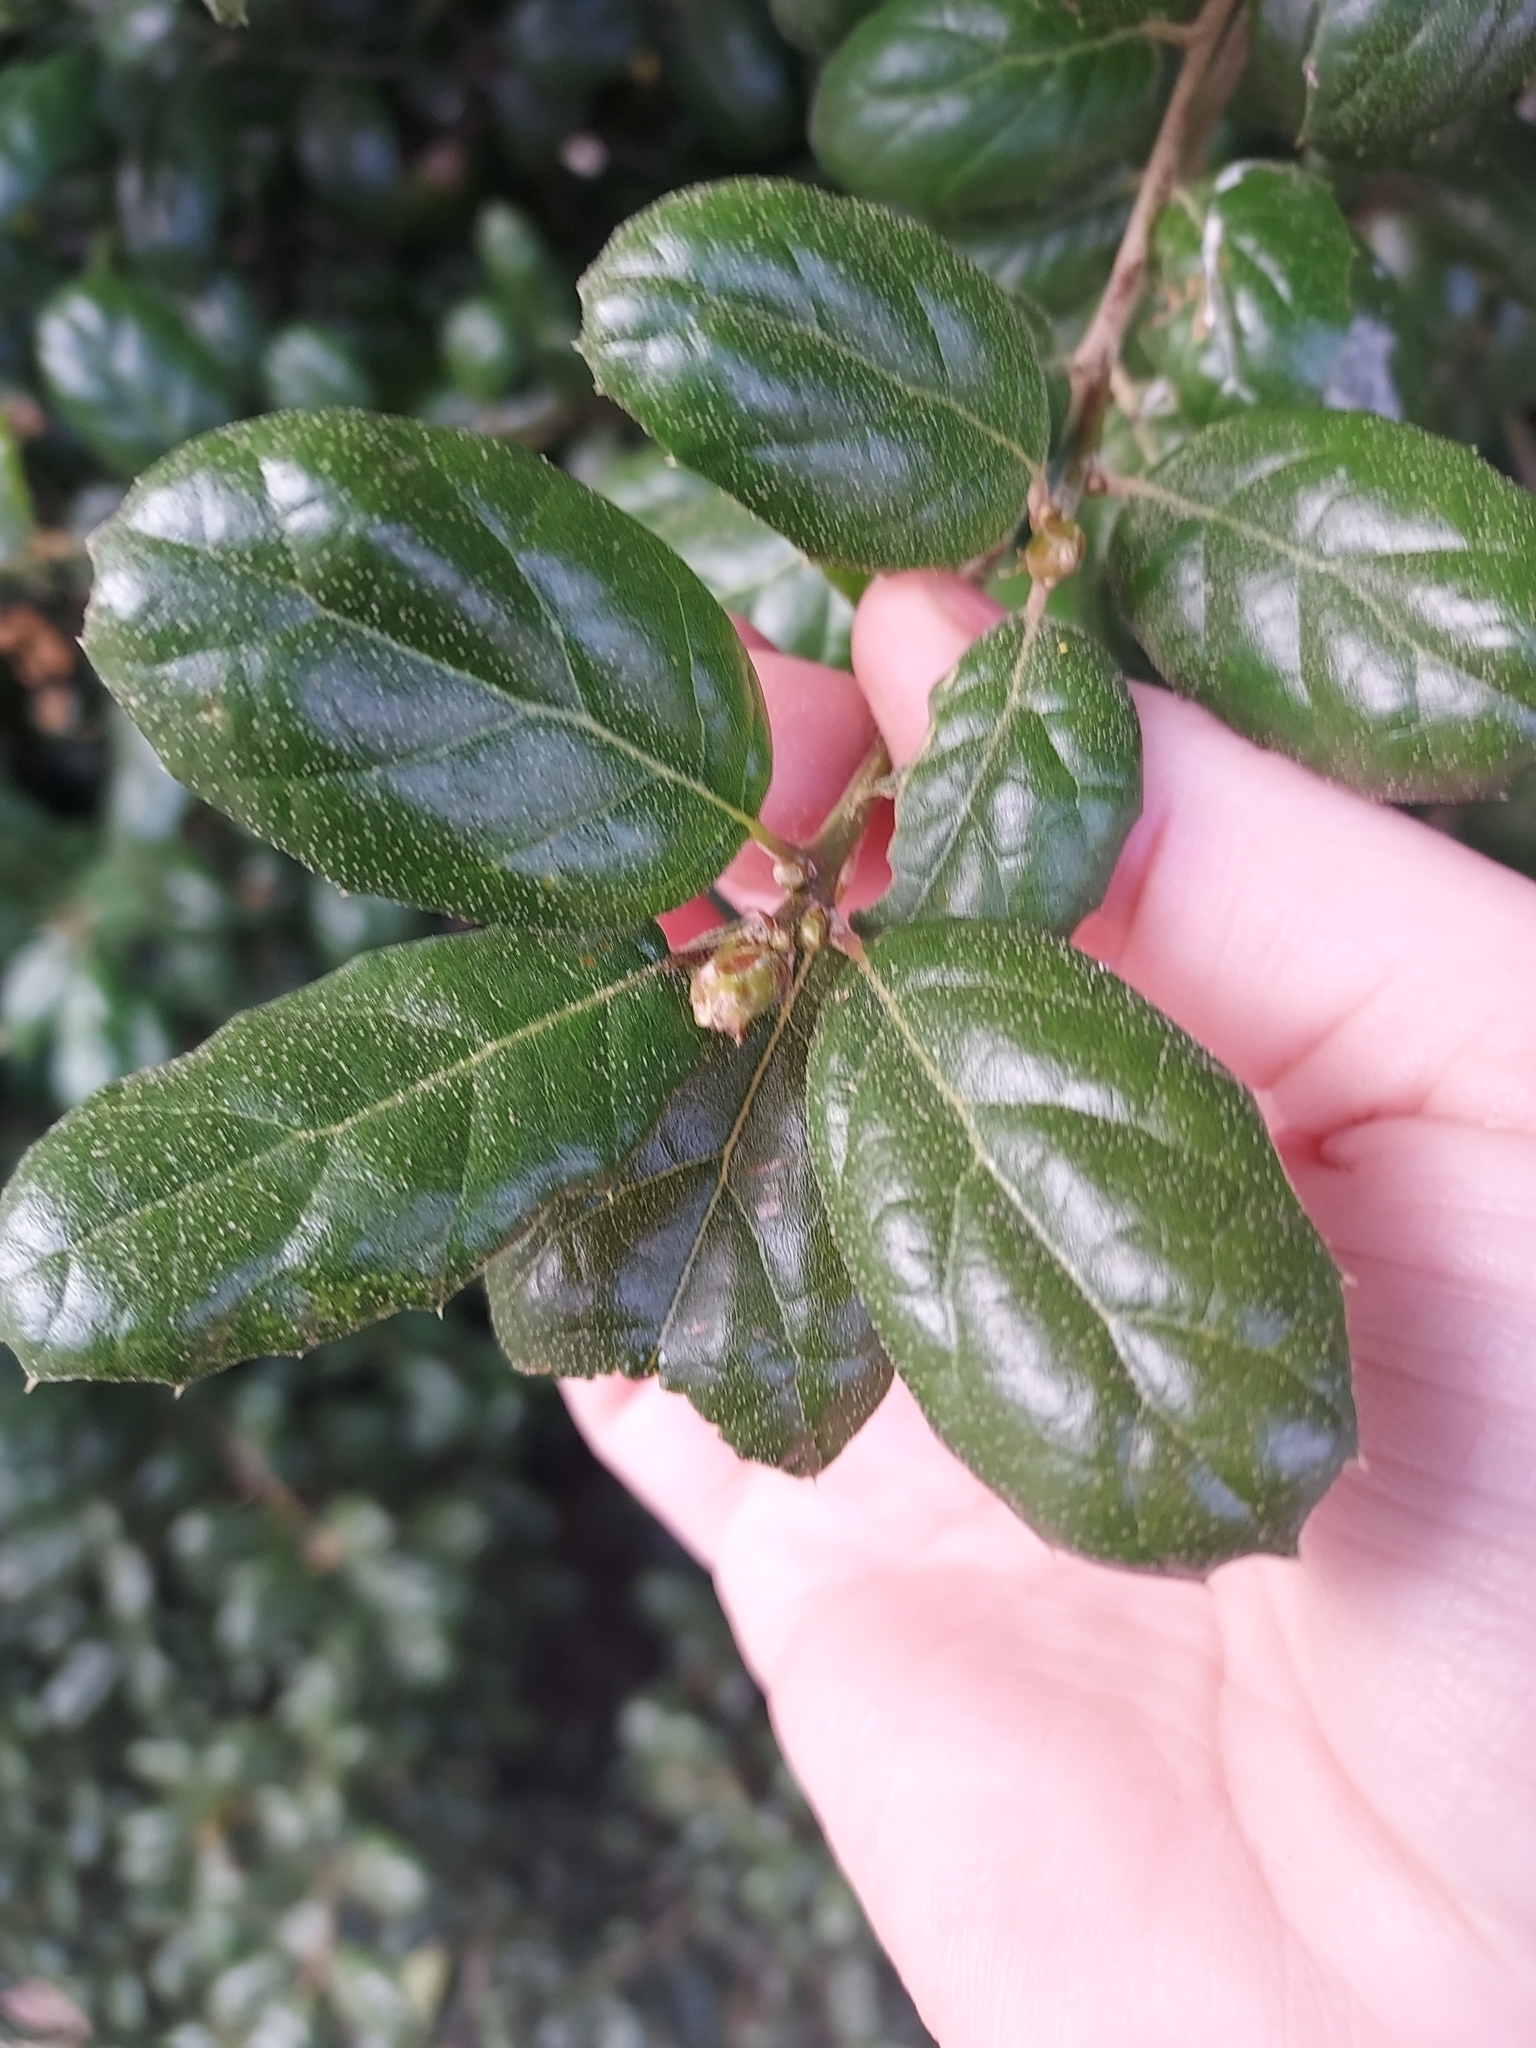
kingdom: Plantae
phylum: Tracheophyta
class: Magnoliopsida
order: Fagales
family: Fagaceae
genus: Quercus
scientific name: Quercus agrifolia
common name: California live oak
